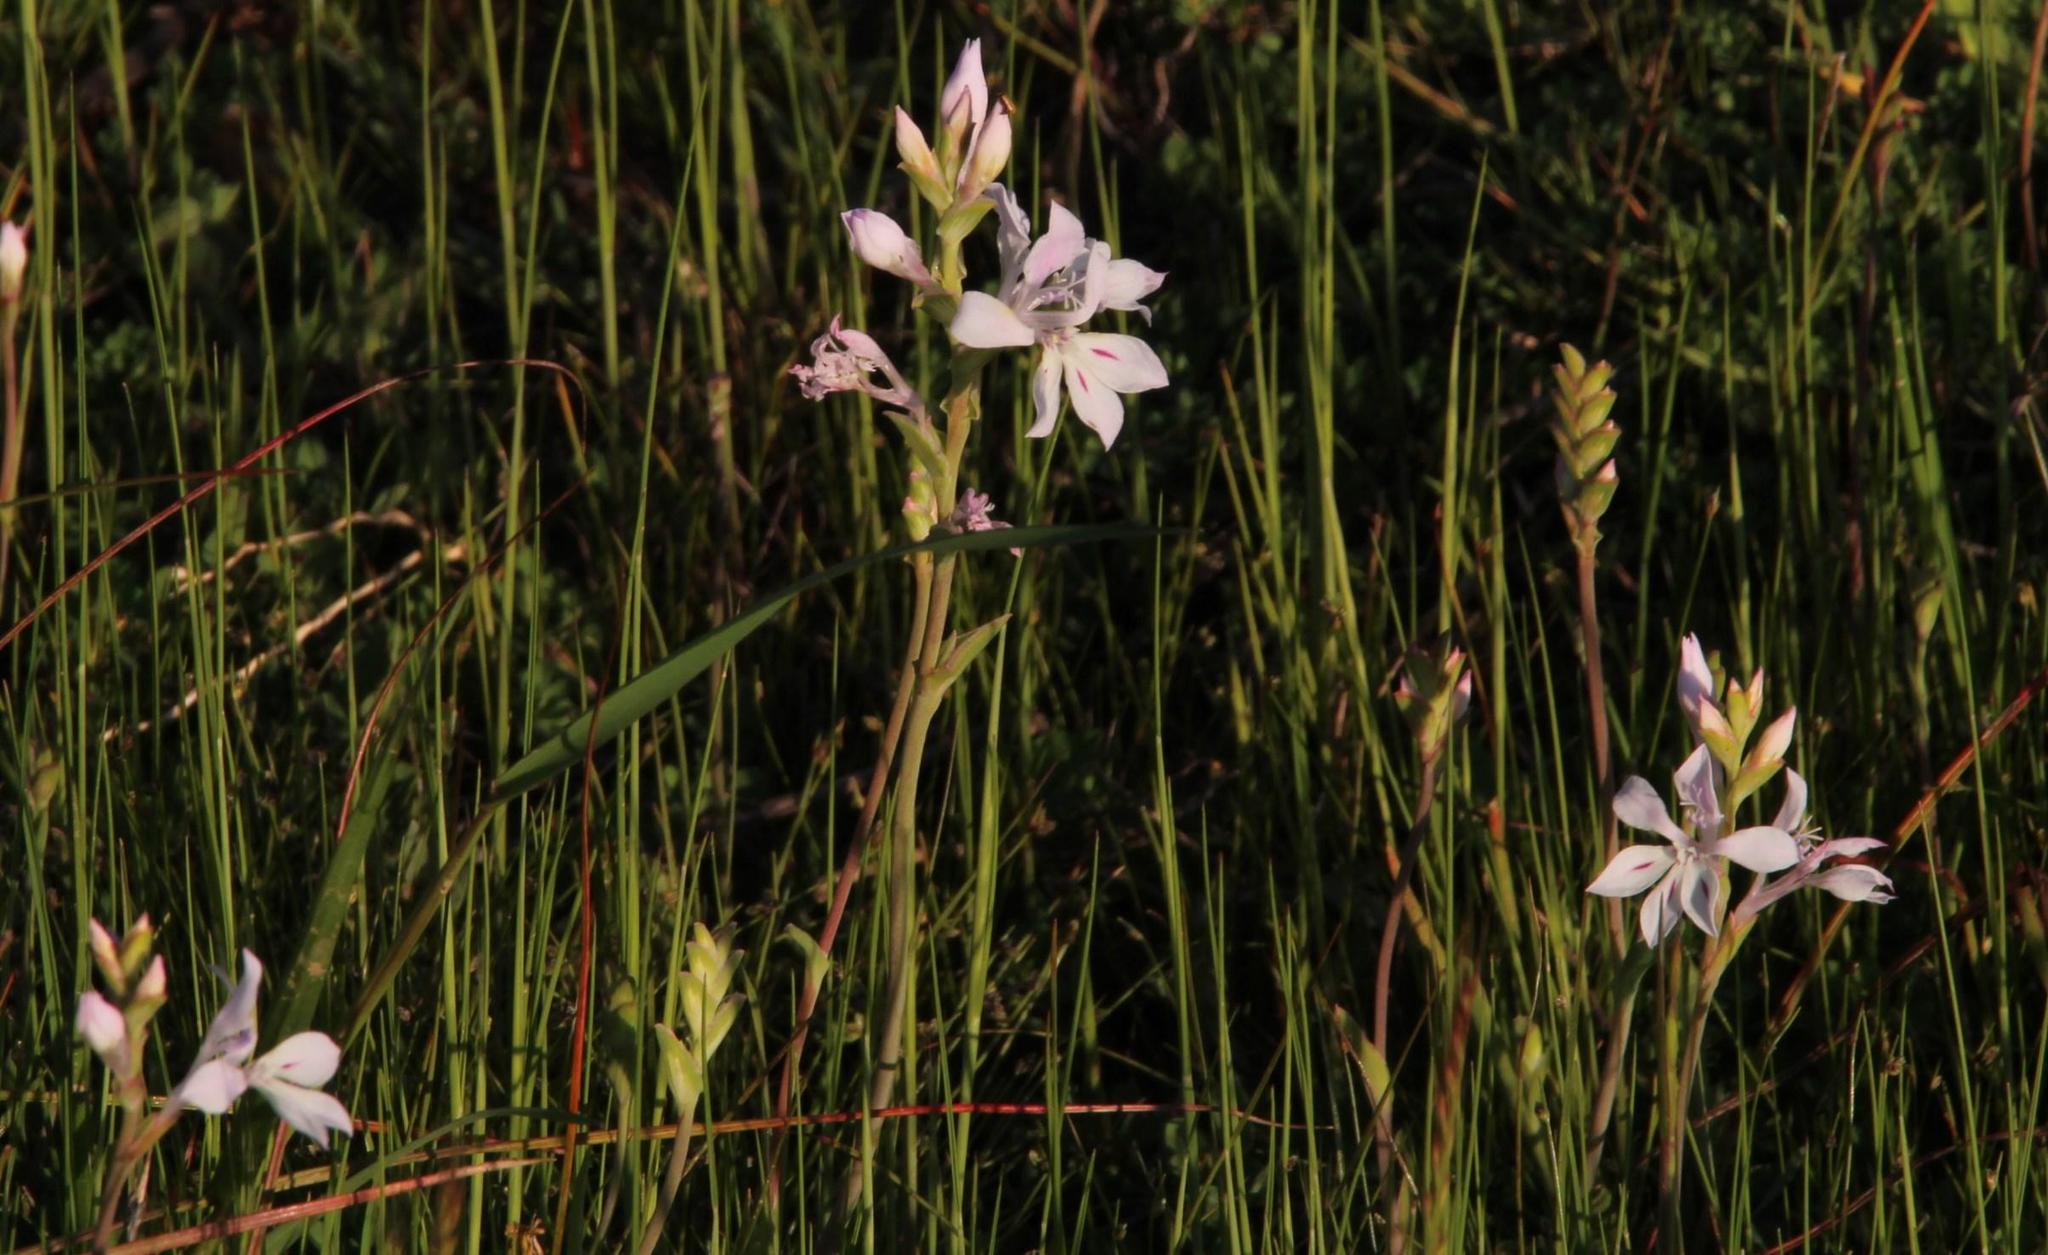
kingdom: Plantae
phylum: Tracheophyta
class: Liliopsida
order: Asparagales
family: Iridaceae
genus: Lapeirousia
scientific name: Lapeirousia divaricata
